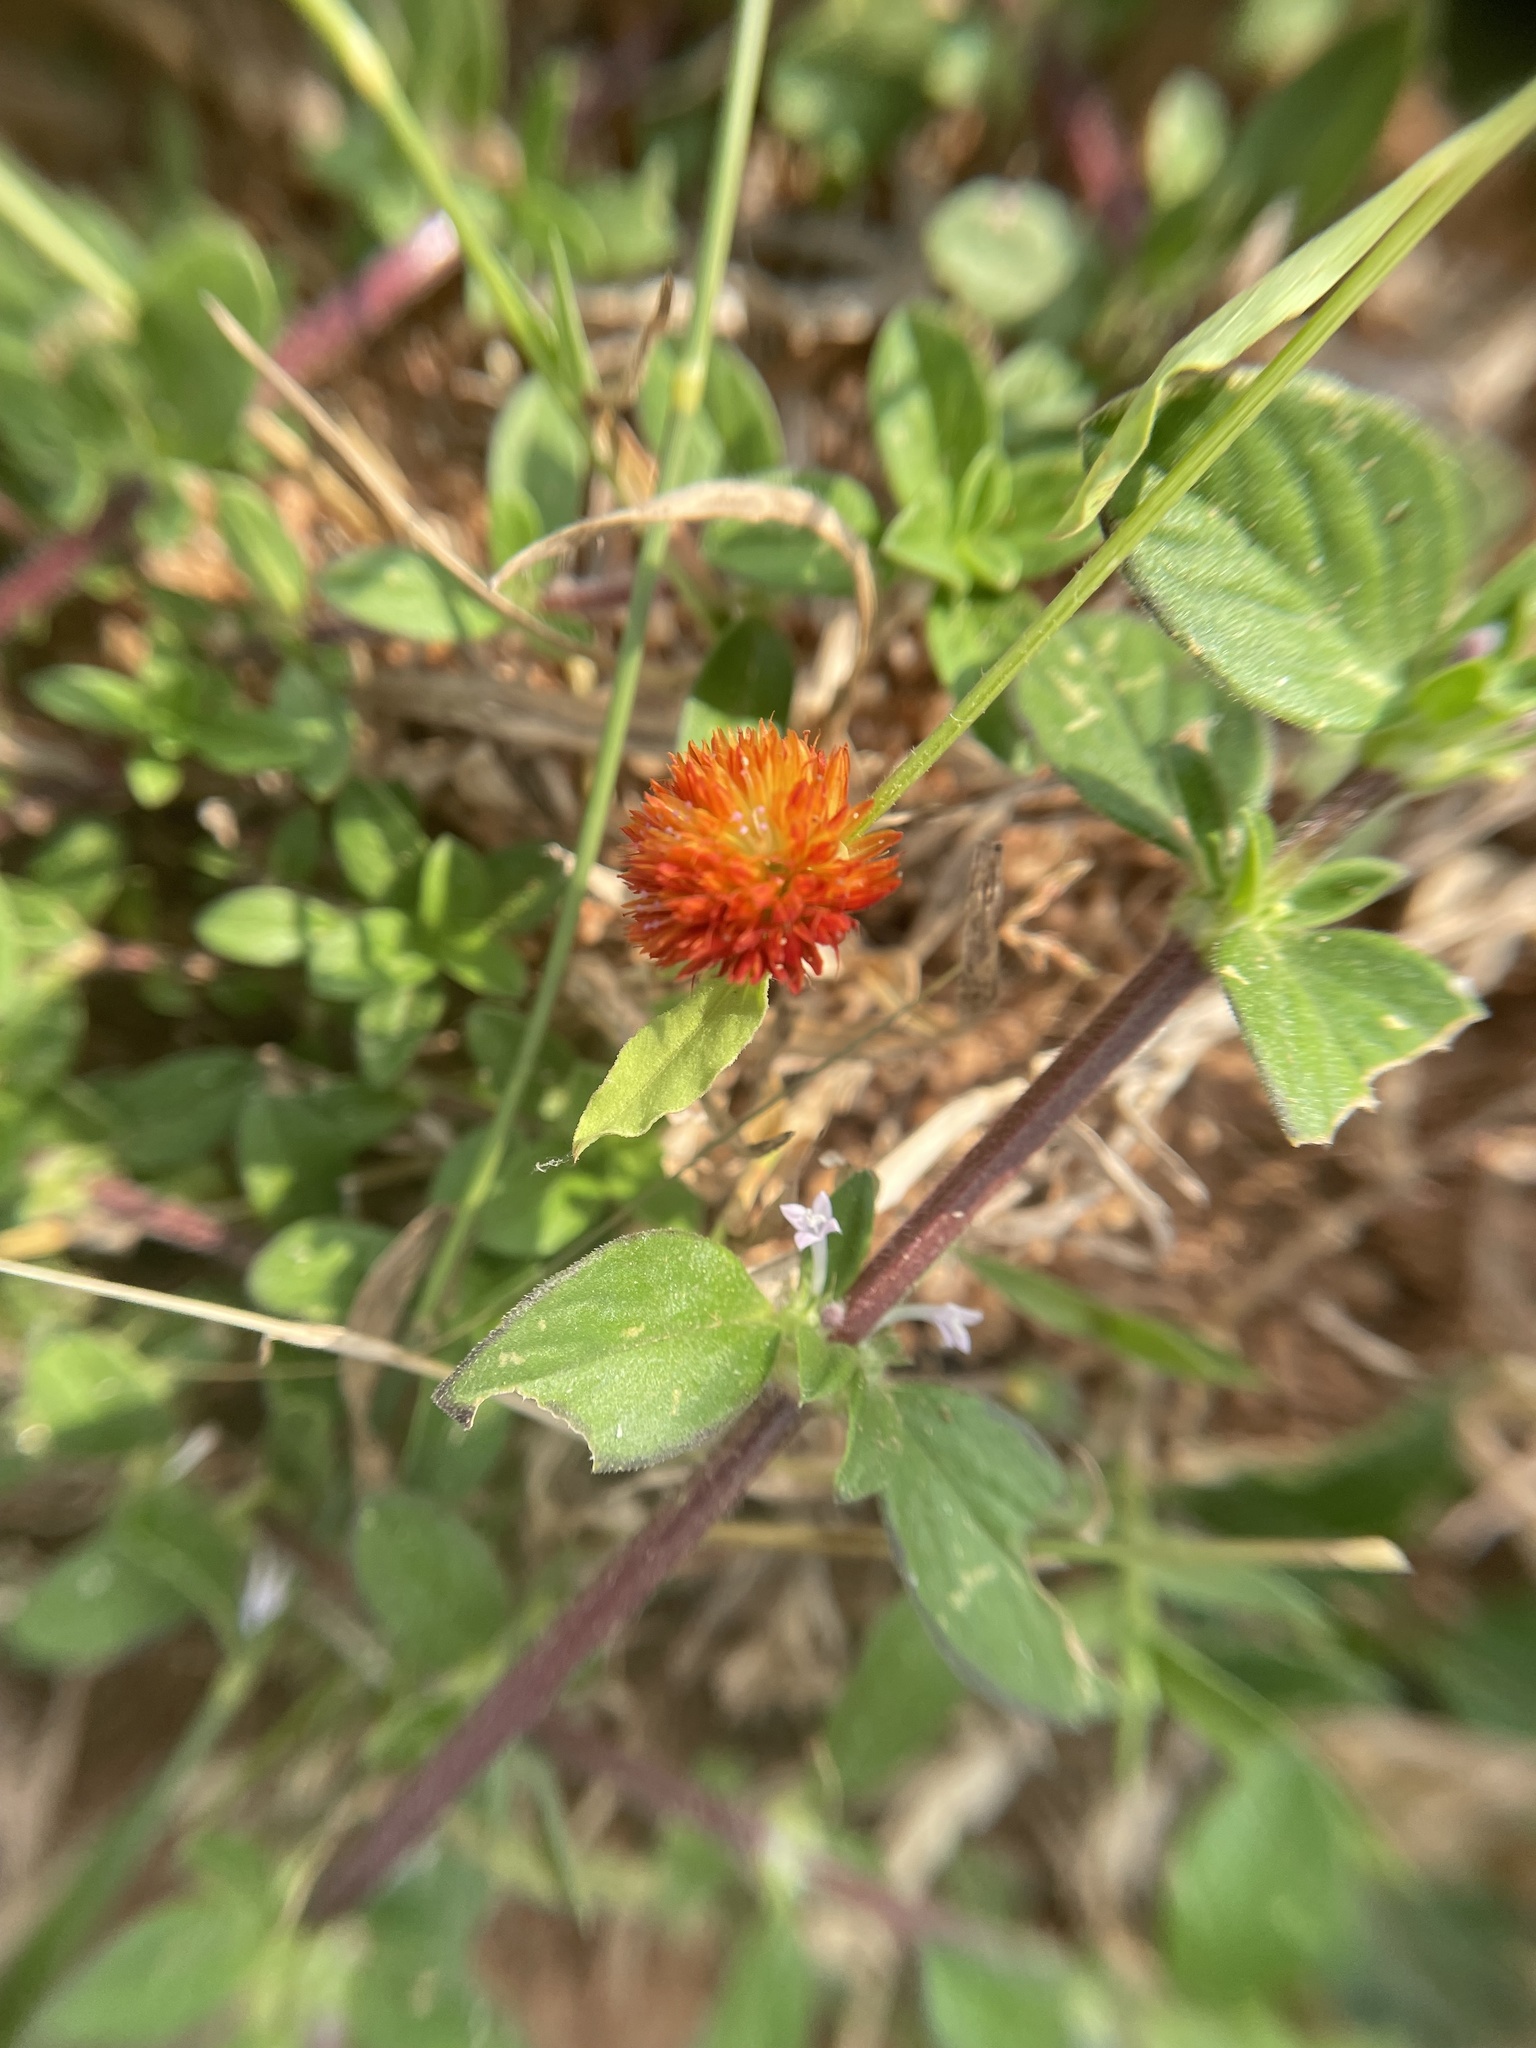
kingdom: Plantae
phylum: Tracheophyta
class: Magnoliopsida
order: Caryophyllales
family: Amaranthaceae
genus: Allmania
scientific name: Allmania nodiflora
